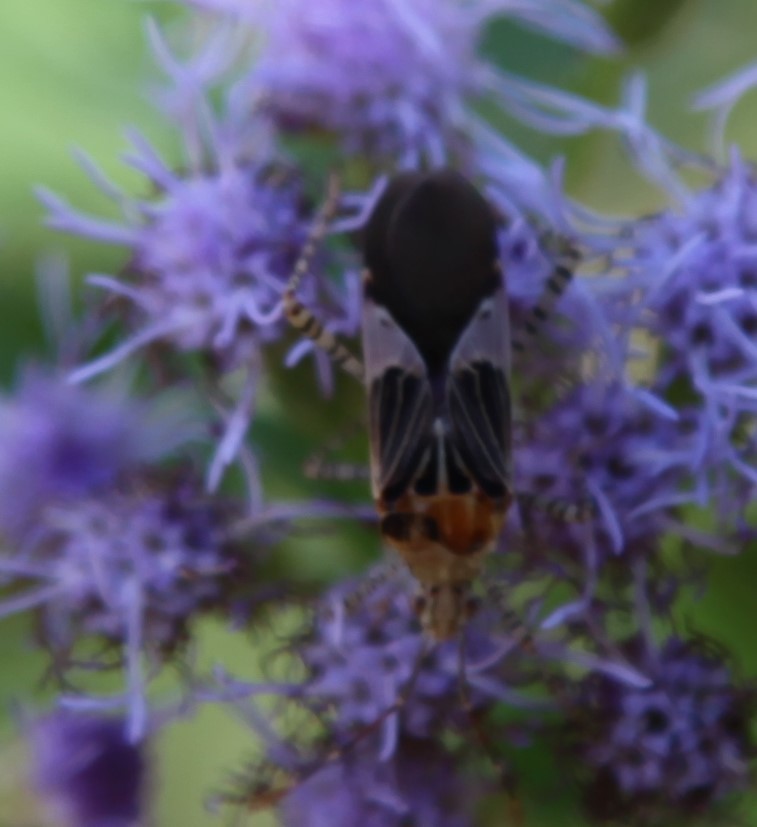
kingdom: Animalia
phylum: Arthropoda
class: Insecta
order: Hemiptera
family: Coreidae
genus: Hypselonotus
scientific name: Hypselonotus punctiventris
